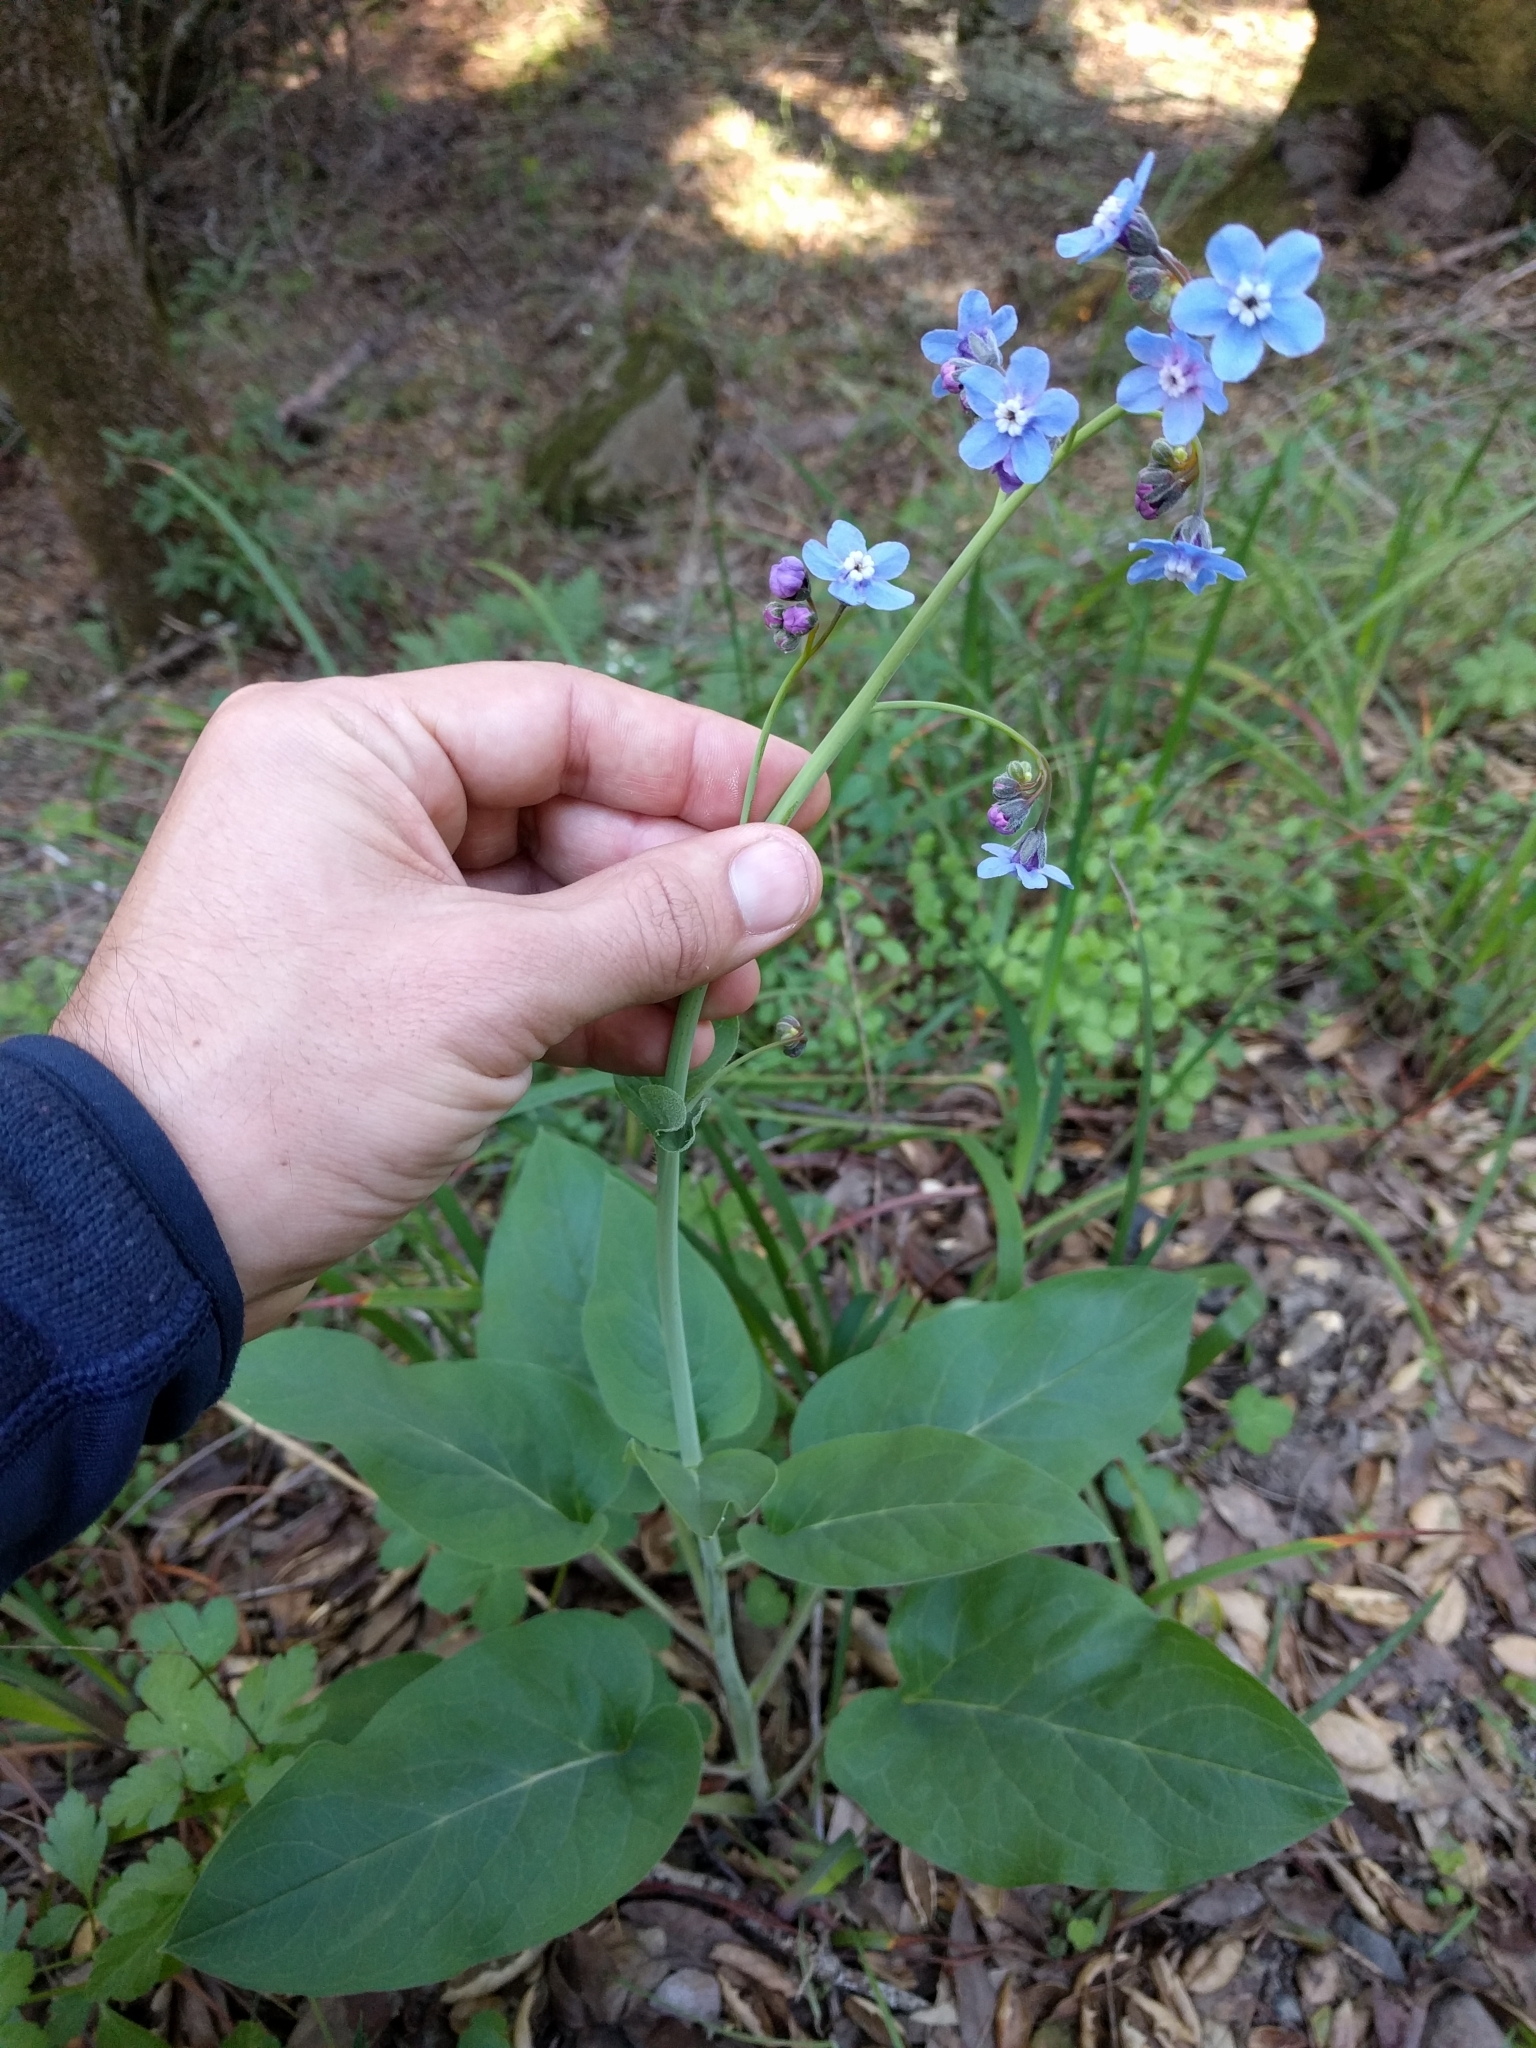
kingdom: Plantae
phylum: Tracheophyta
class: Magnoliopsida
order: Boraginales
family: Boraginaceae
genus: Adelinia
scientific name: Adelinia grande
